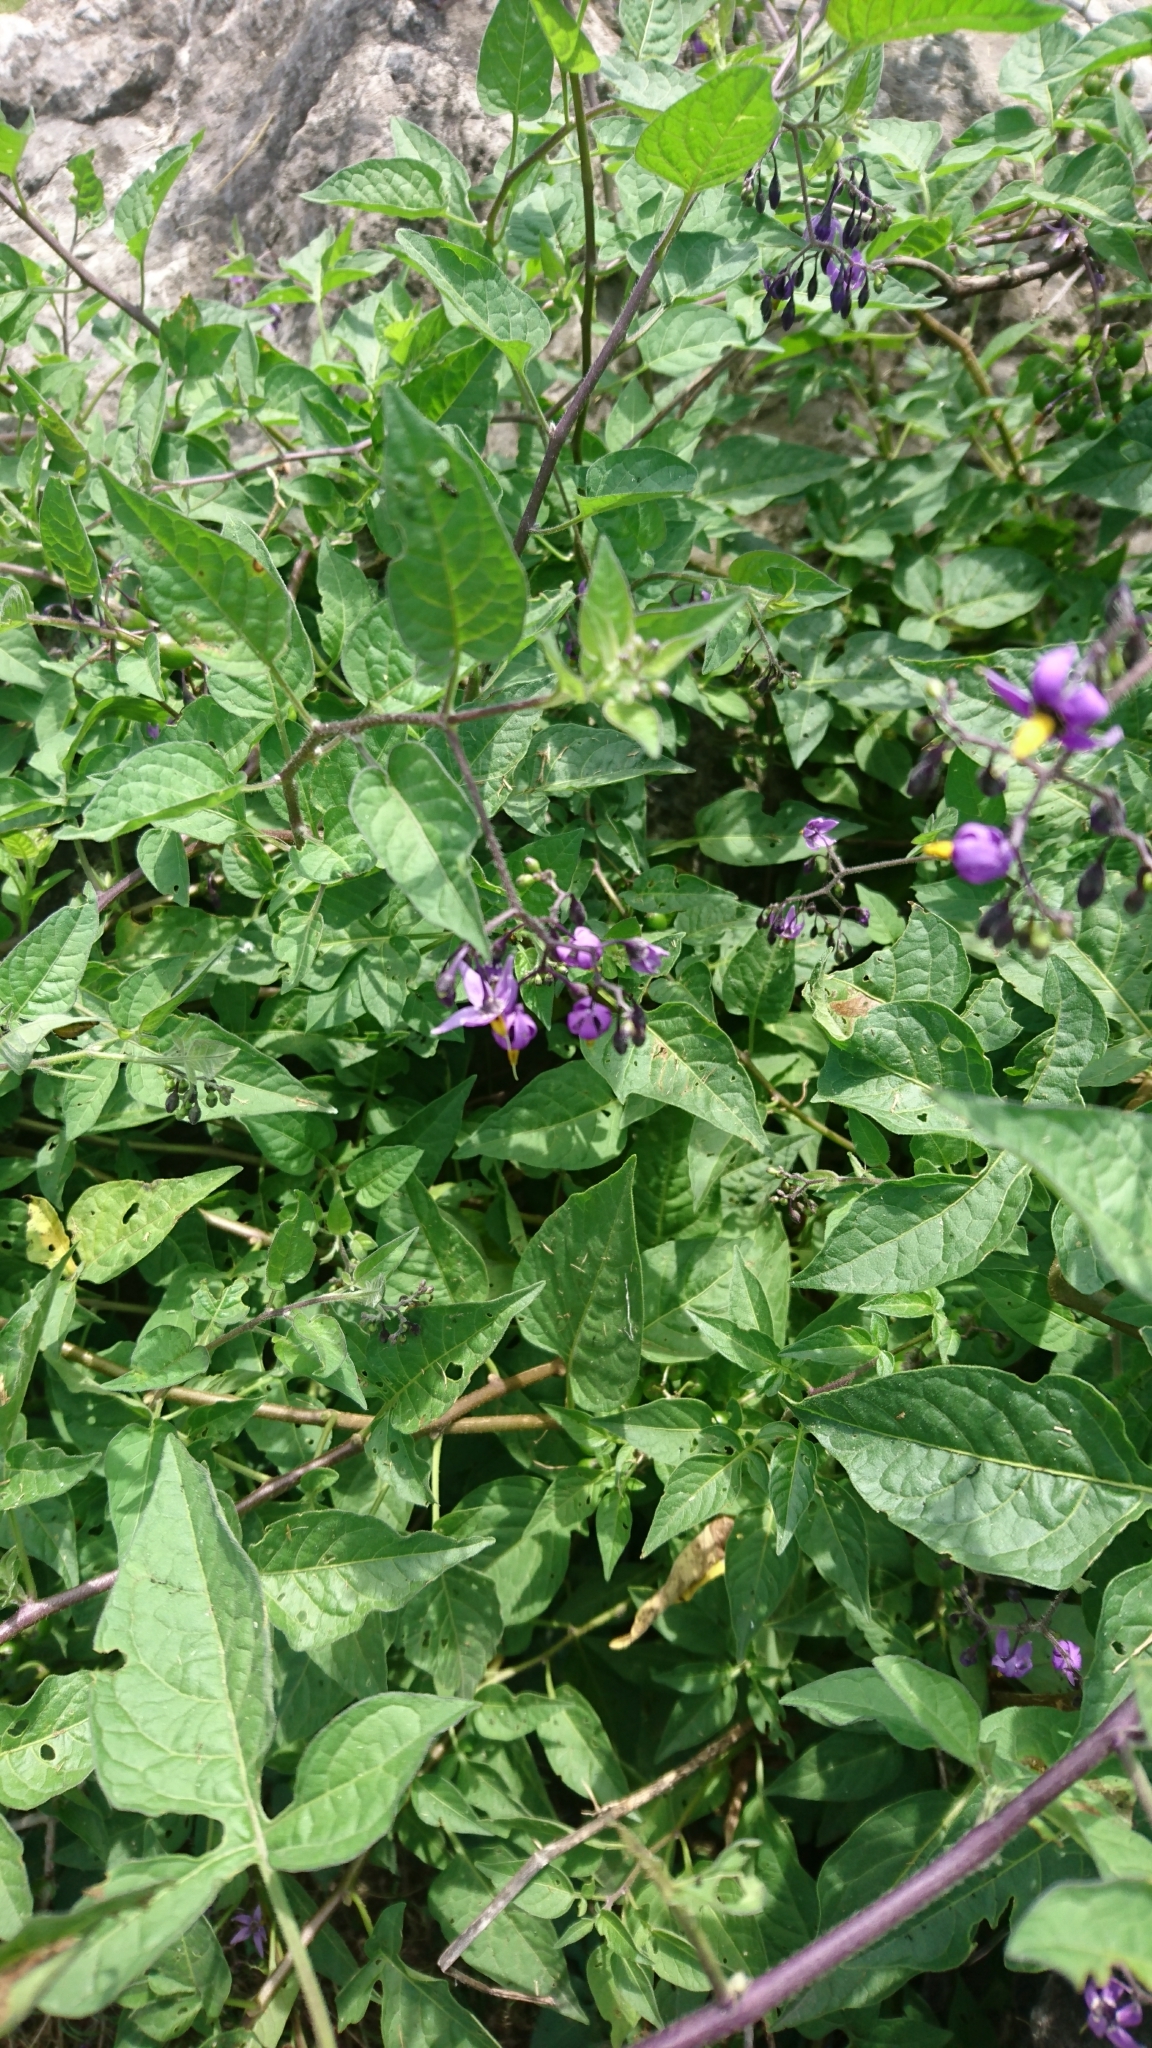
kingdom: Plantae
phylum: Tracheophyta
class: Magnoliopsida
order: Solanales
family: Solanaceae
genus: Solanum
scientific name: Solanum dulcamara
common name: Climbing nightshade
